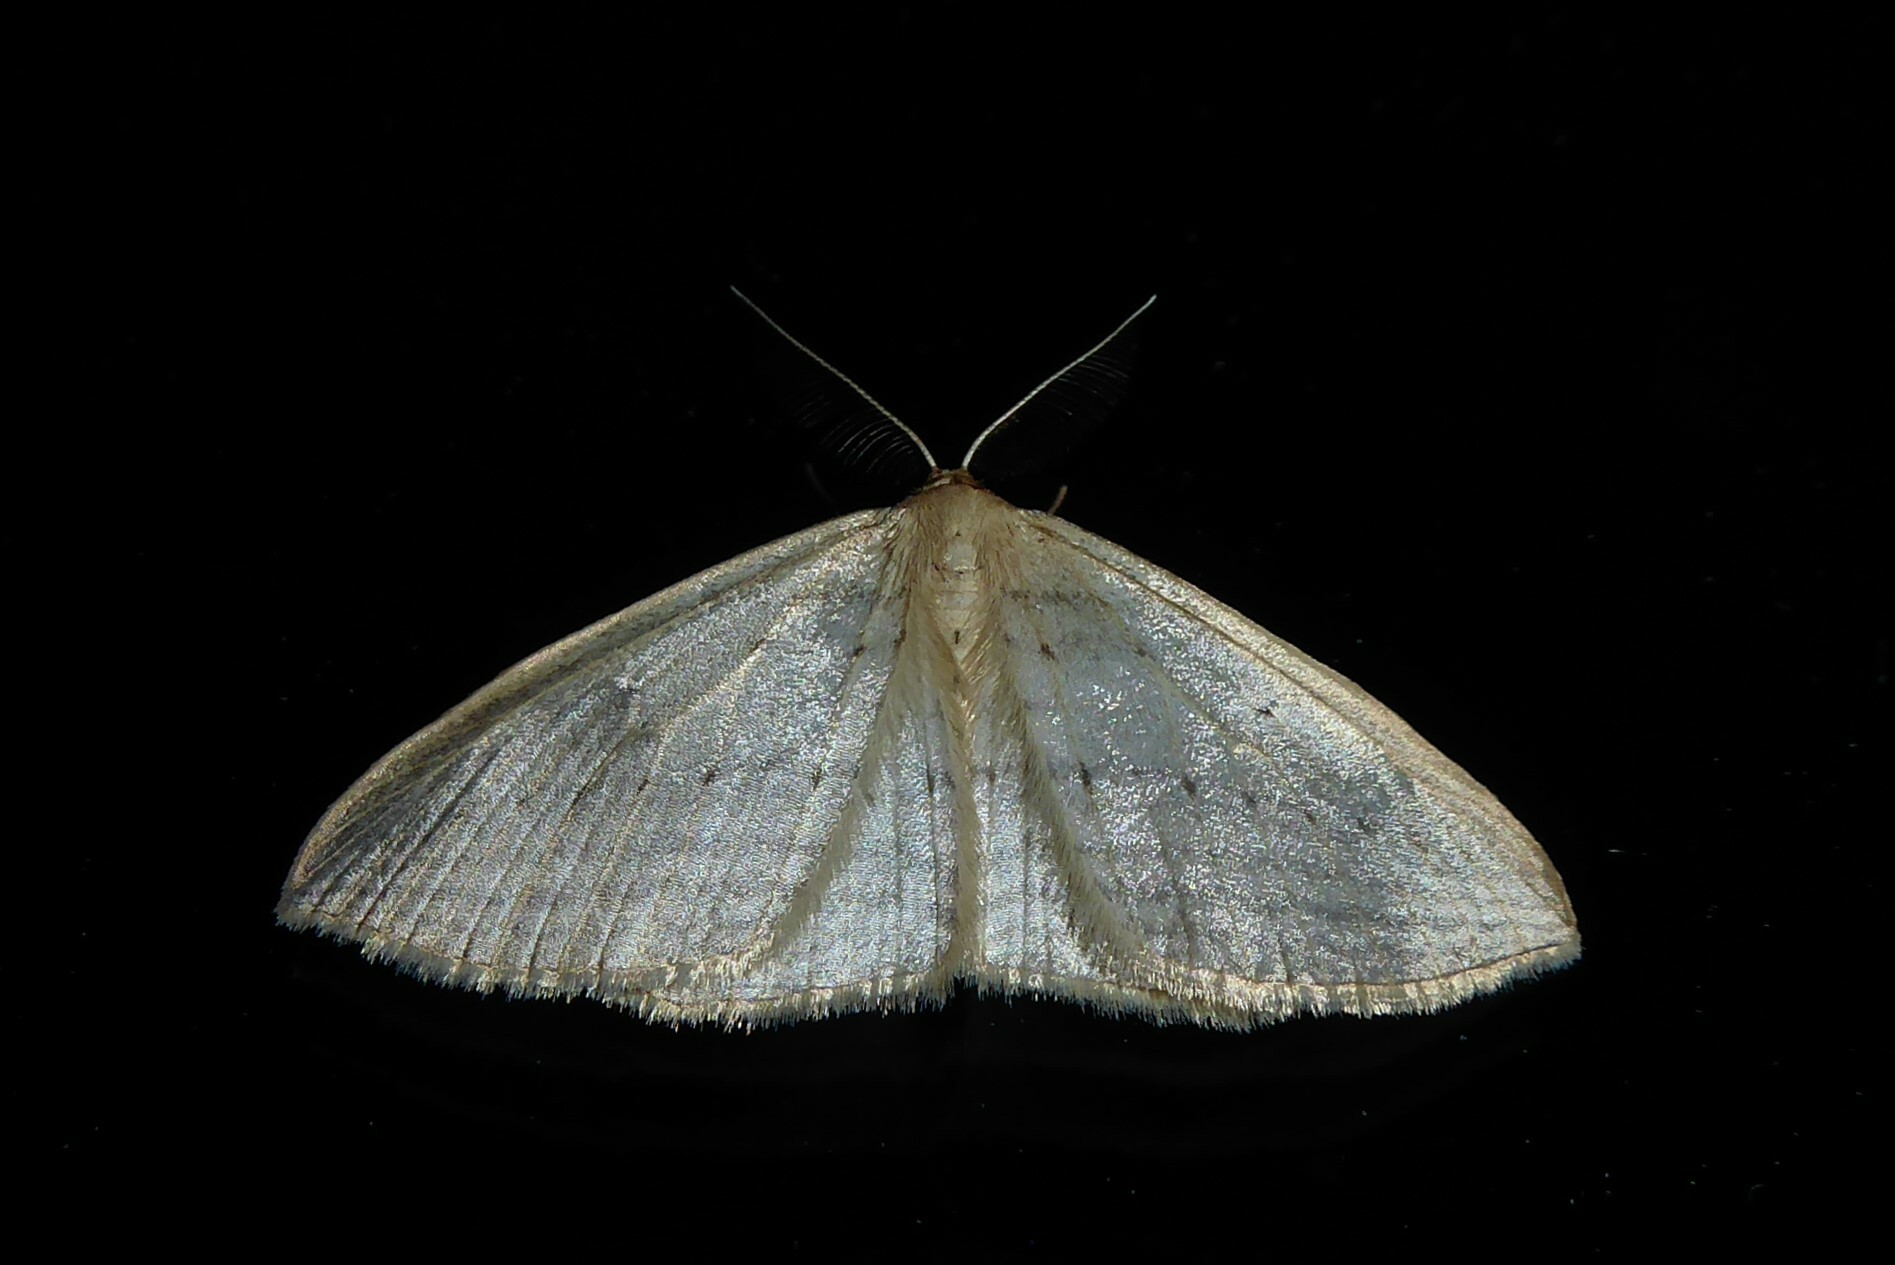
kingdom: Animalia
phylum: Arthropoda
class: Insecta
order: Lepidoptera
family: Geometridae
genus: Orthoclydon
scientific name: Orthoclydon praefectata
